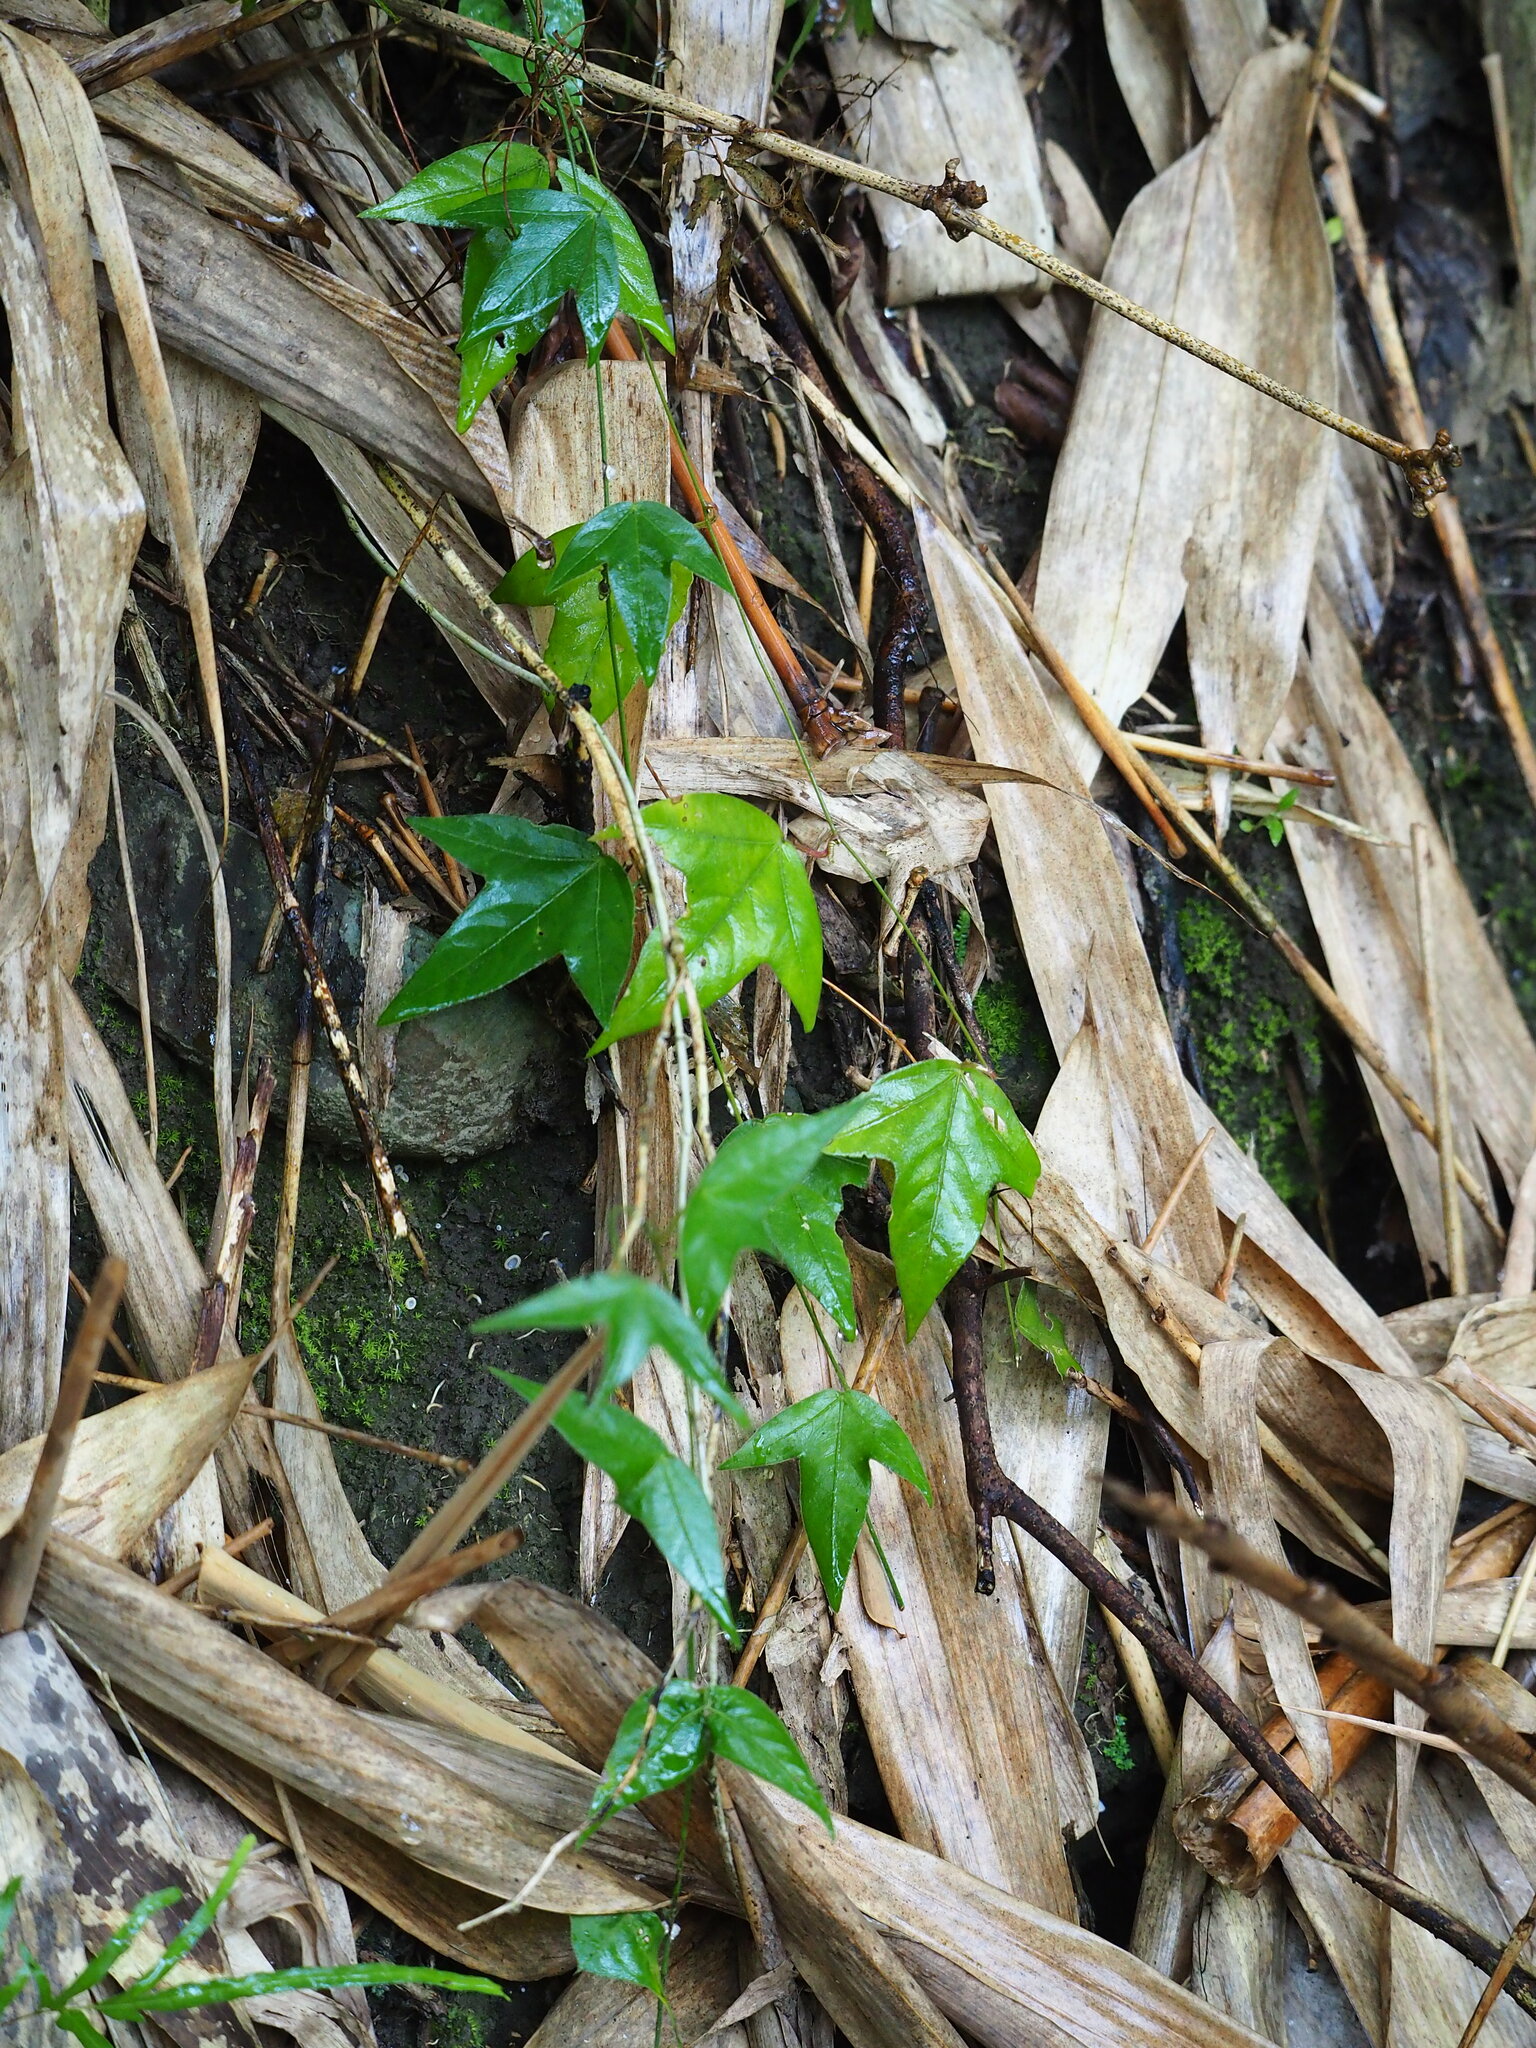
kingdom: Plantae
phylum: Tracheophyta
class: Magnoliopsida
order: Malpighiales
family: Passifloraceae
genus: Passiflora
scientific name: Passiflora suberosa
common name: Wild passionfruit
